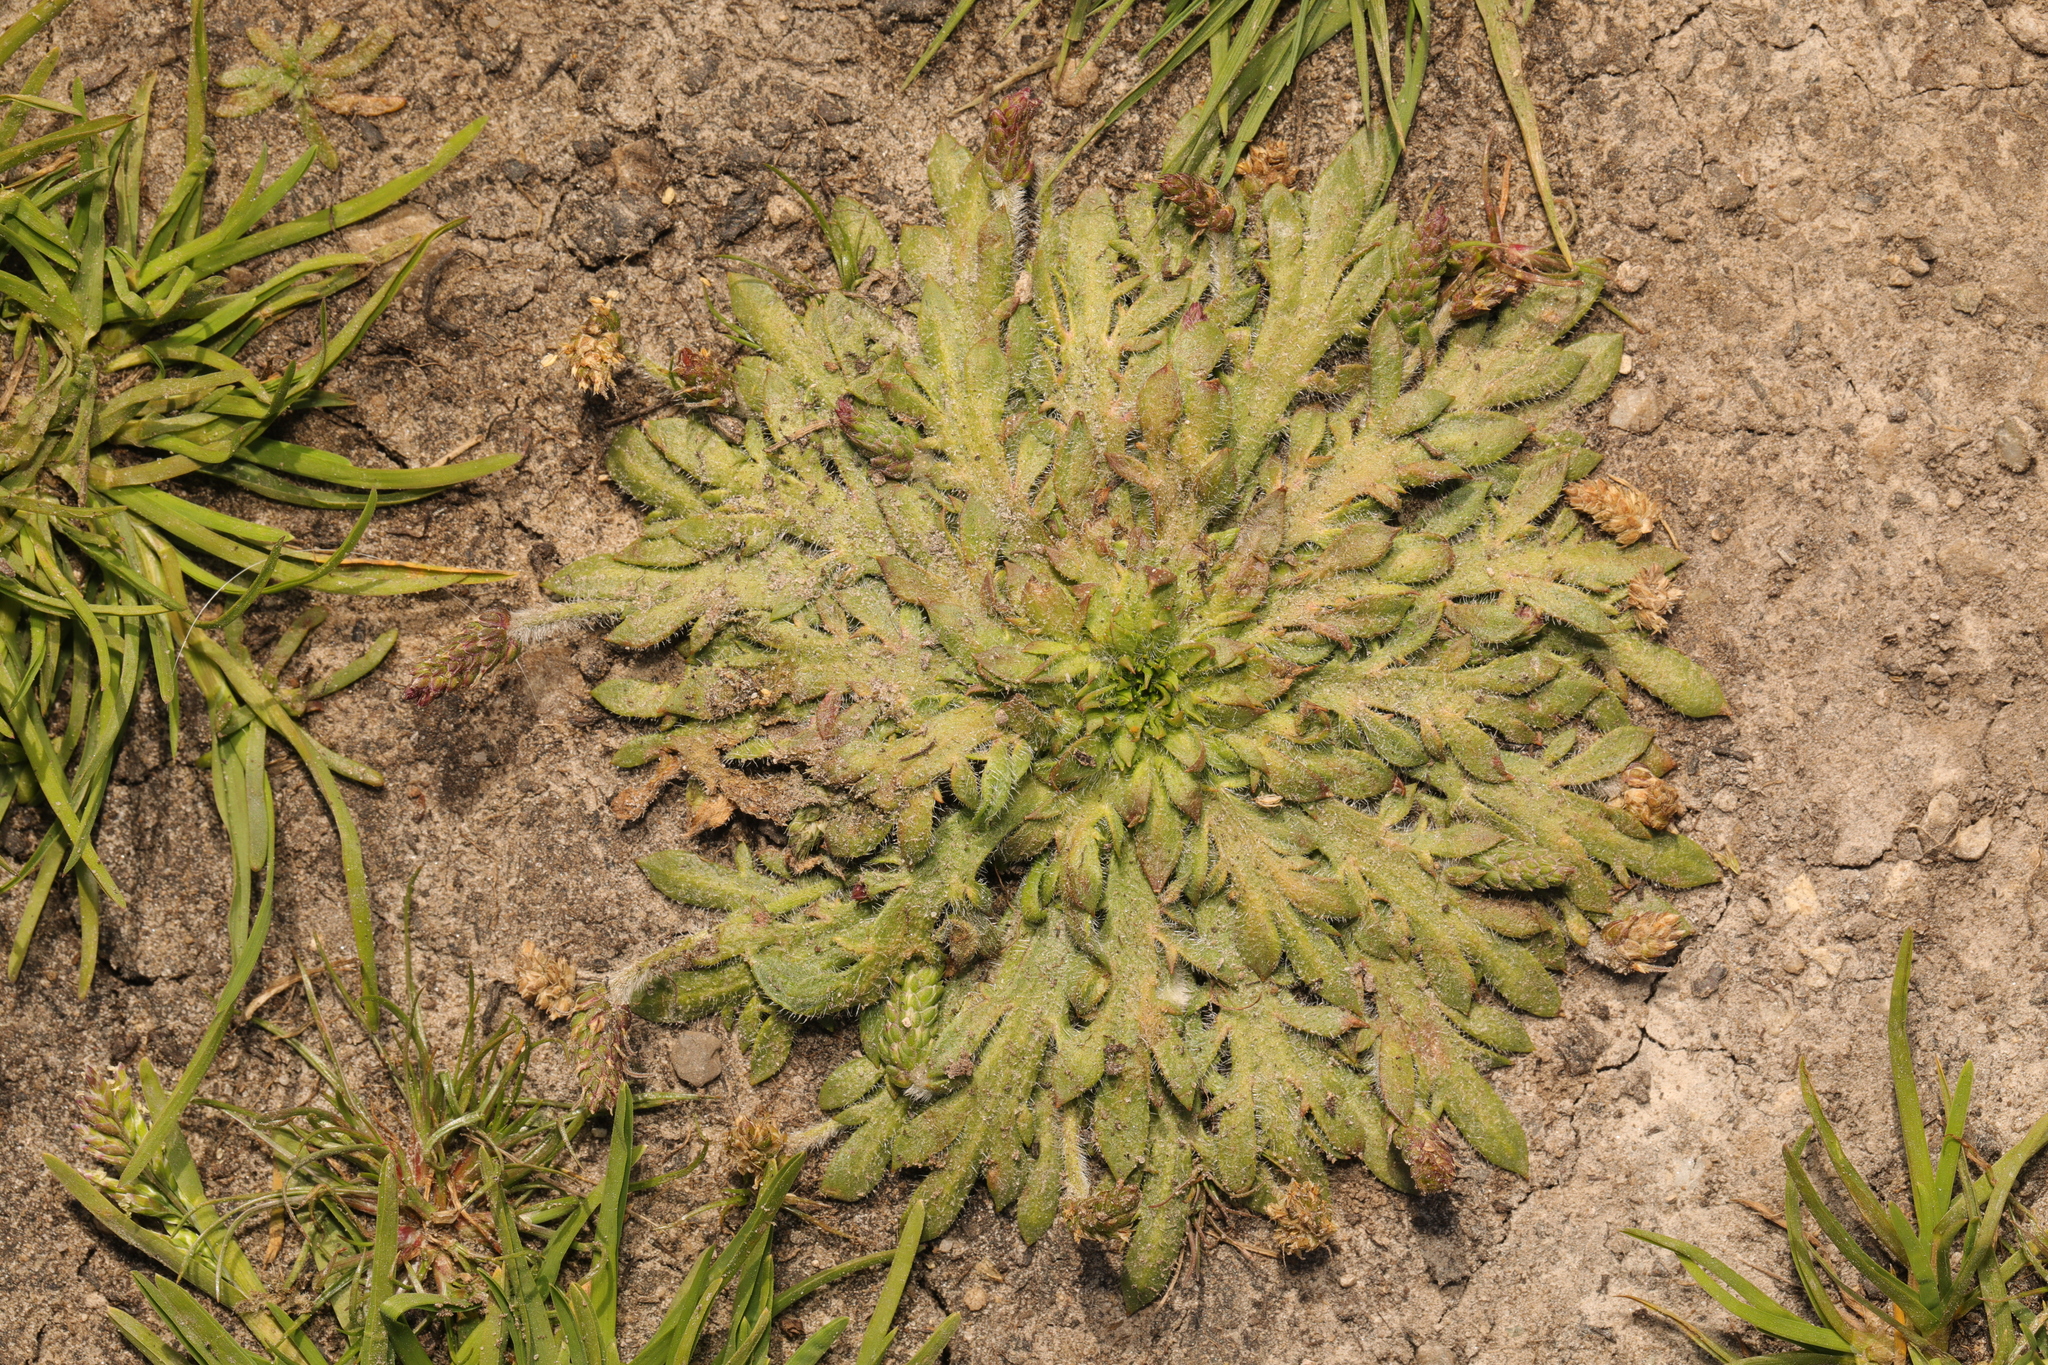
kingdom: Plantae
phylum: Tracheophyta
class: Magnoliopsida
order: Lamiales
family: Plantaginaceae
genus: Plantago
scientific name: Plantago coronopus
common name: Buck's-horn plantain
